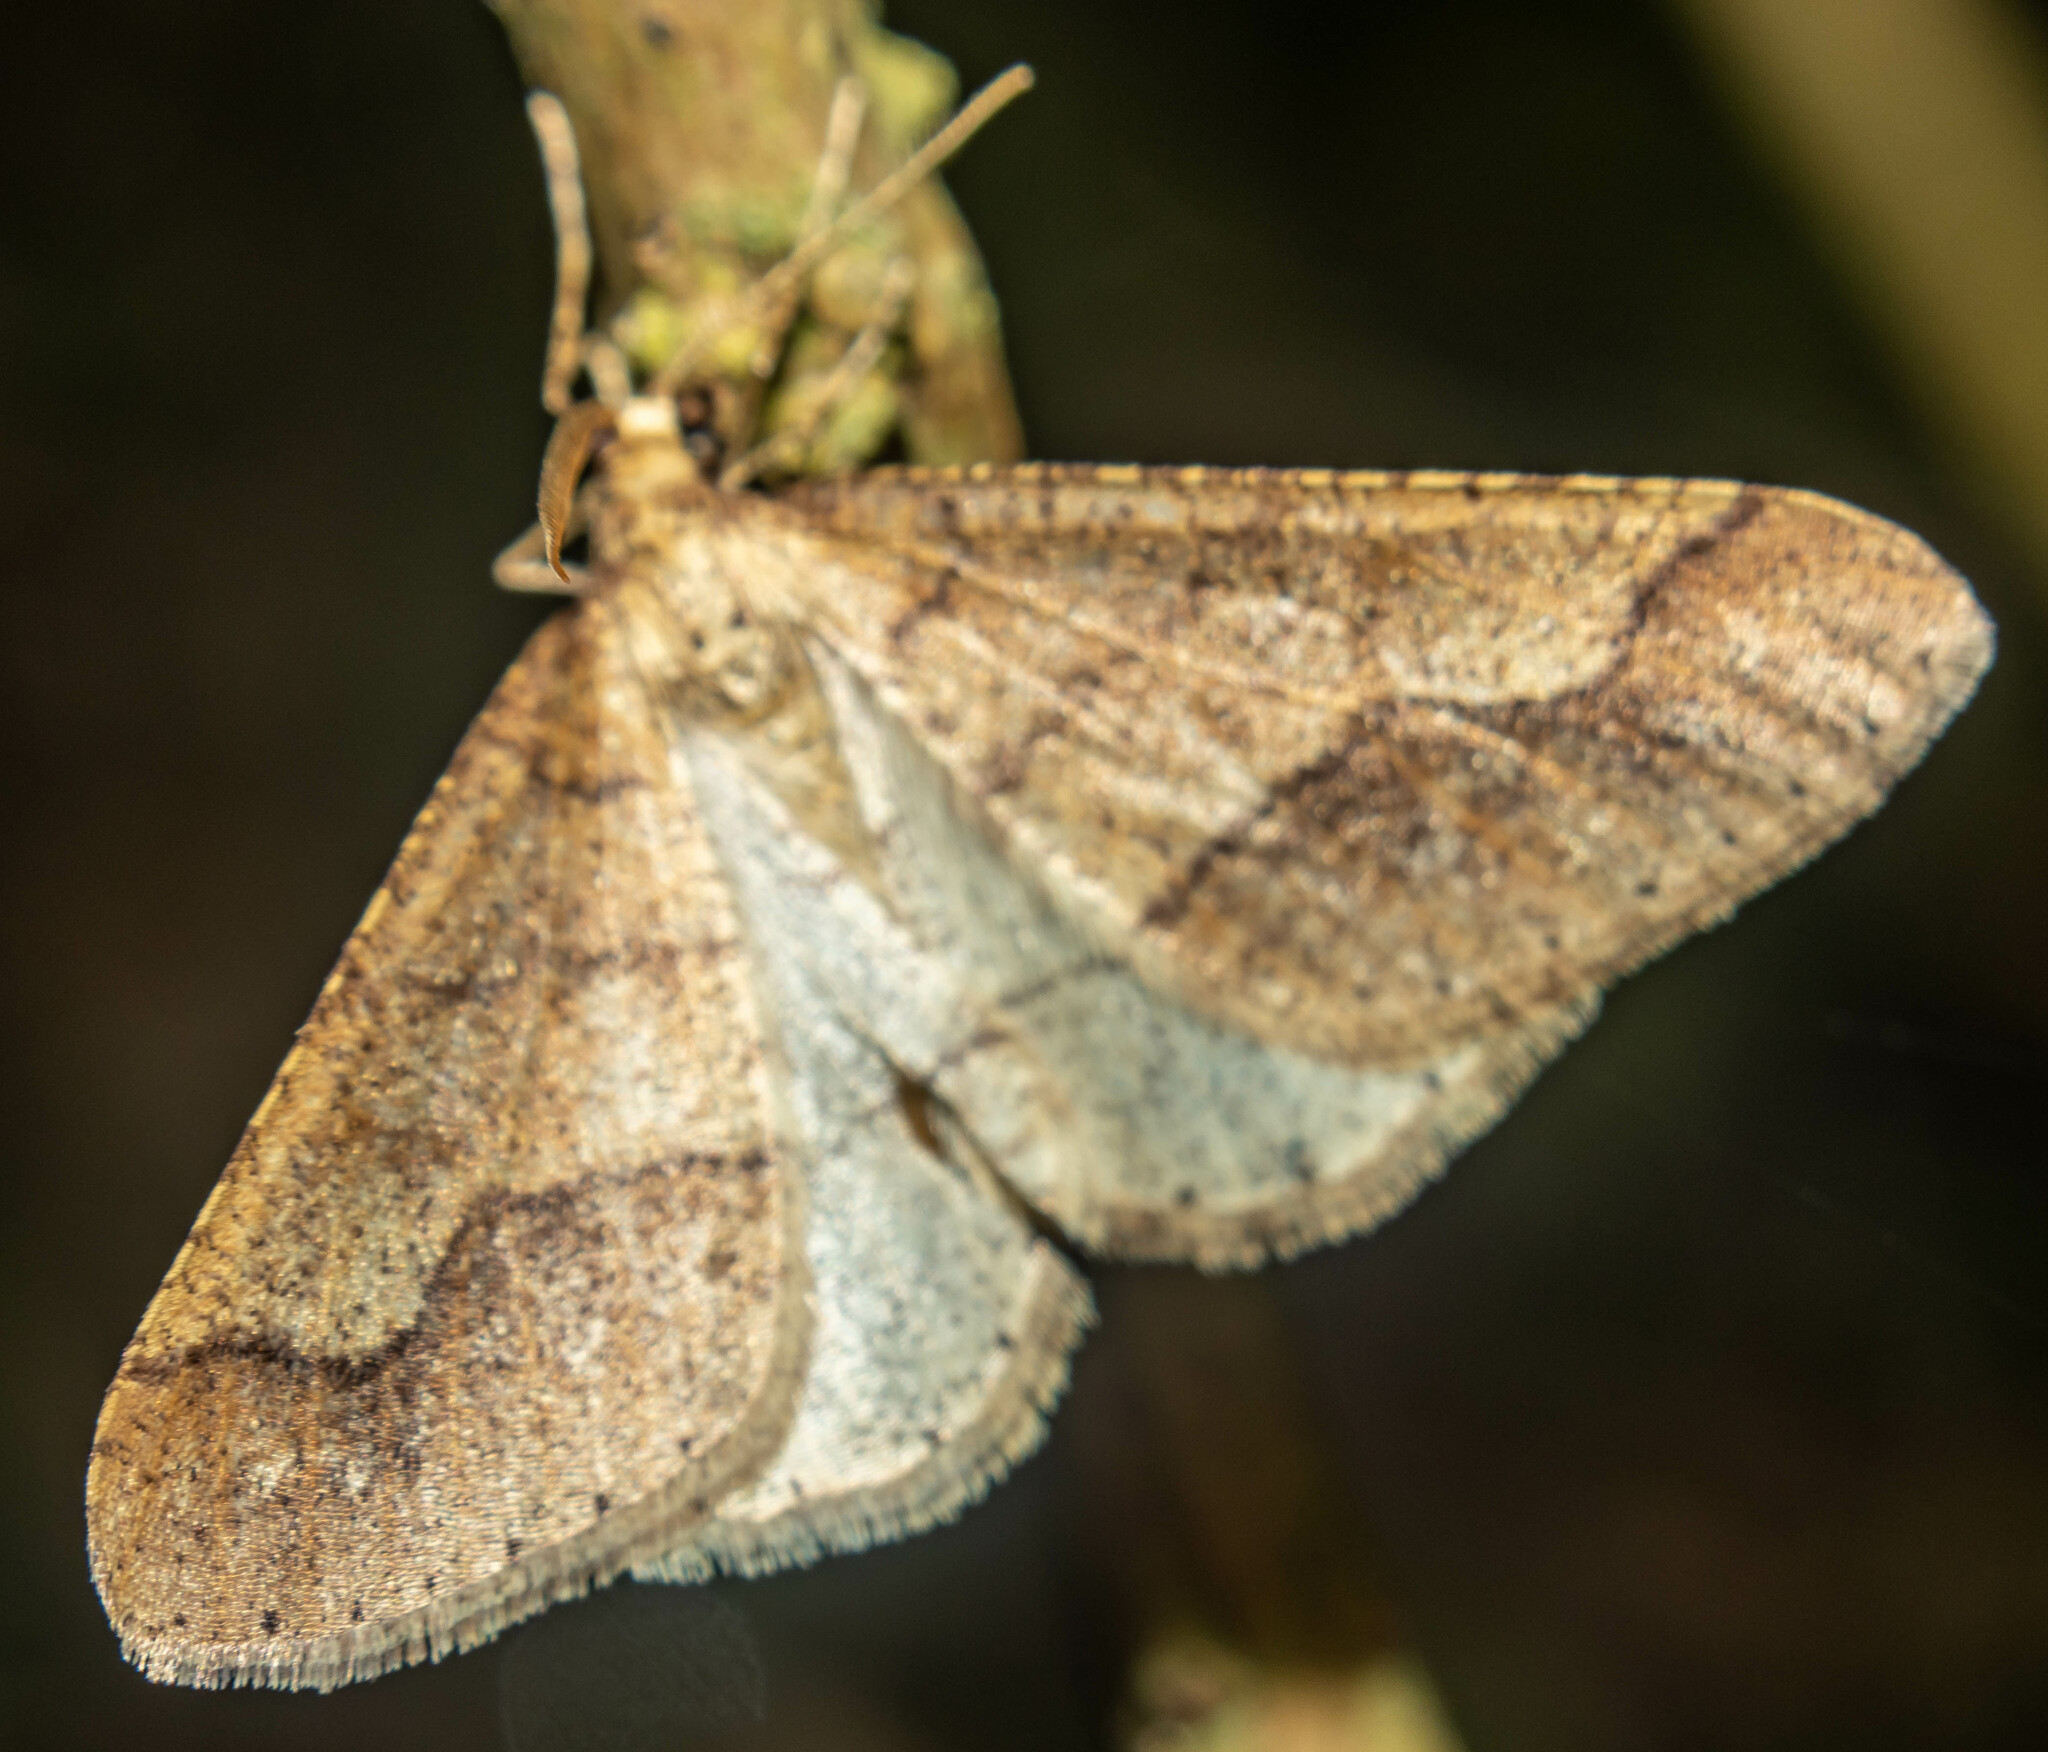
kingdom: Animalia
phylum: Arthropoda
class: Insecta
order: Lepidoptera
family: Geometridae
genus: Agriopis
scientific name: Agriopis marginaria
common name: Dotted border
